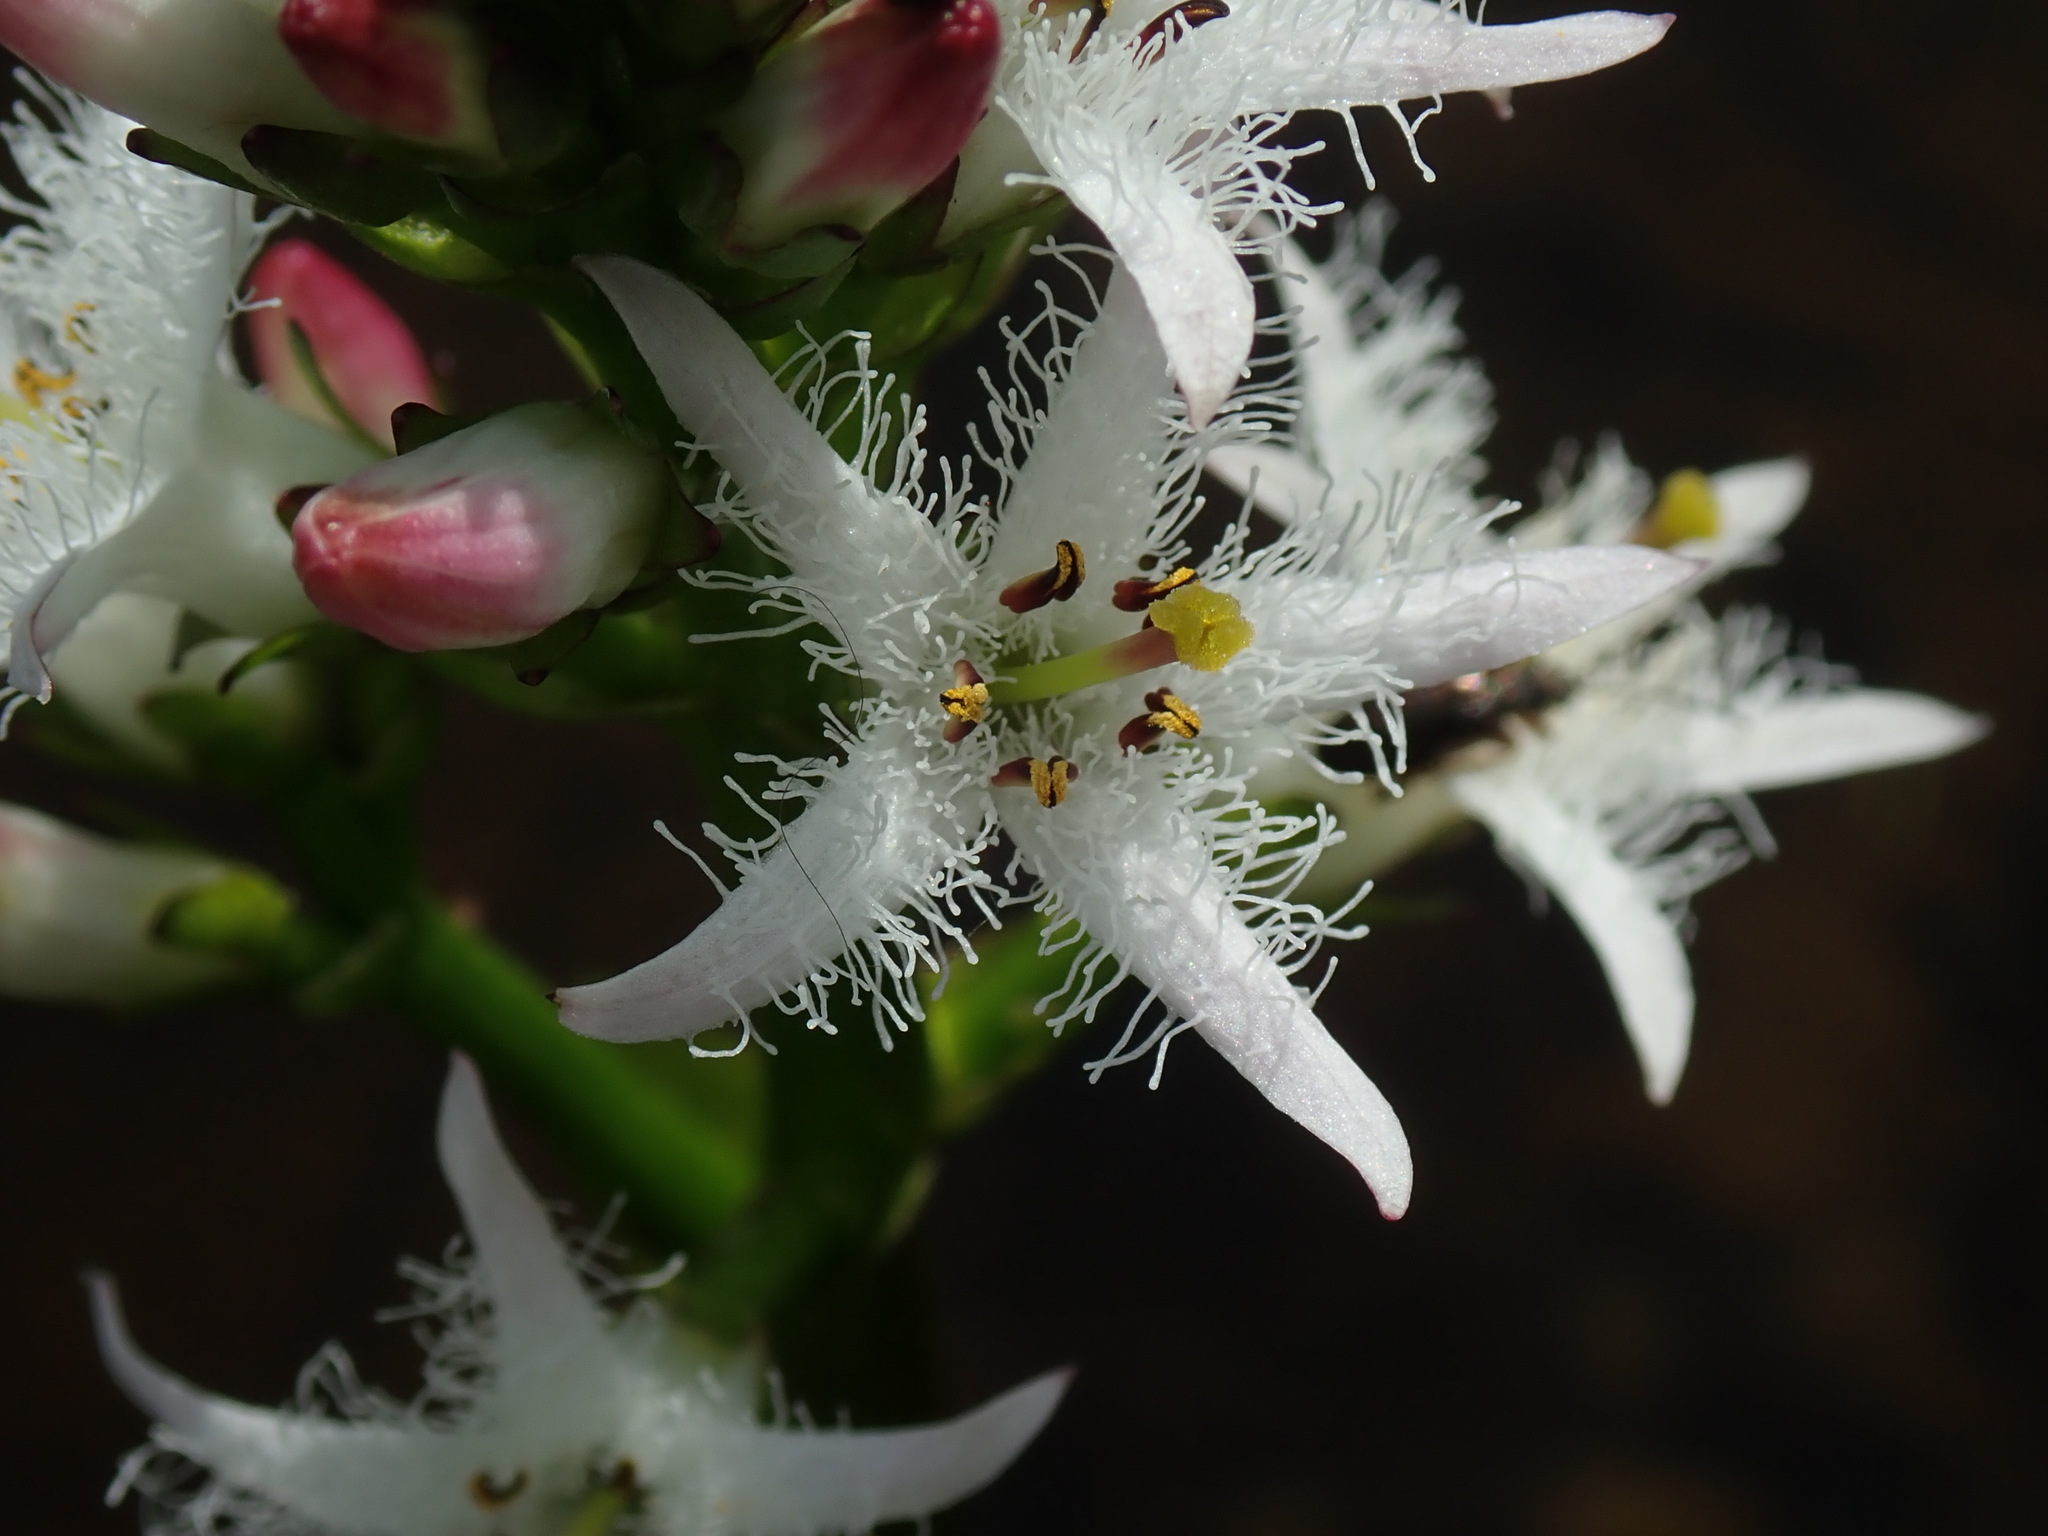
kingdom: Plantae
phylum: Tracheophyta
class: Magnoliopsida
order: Asterales
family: Menyanthaceae
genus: Menyanthes
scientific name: Menyanthes trifoliata
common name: Bogbean
